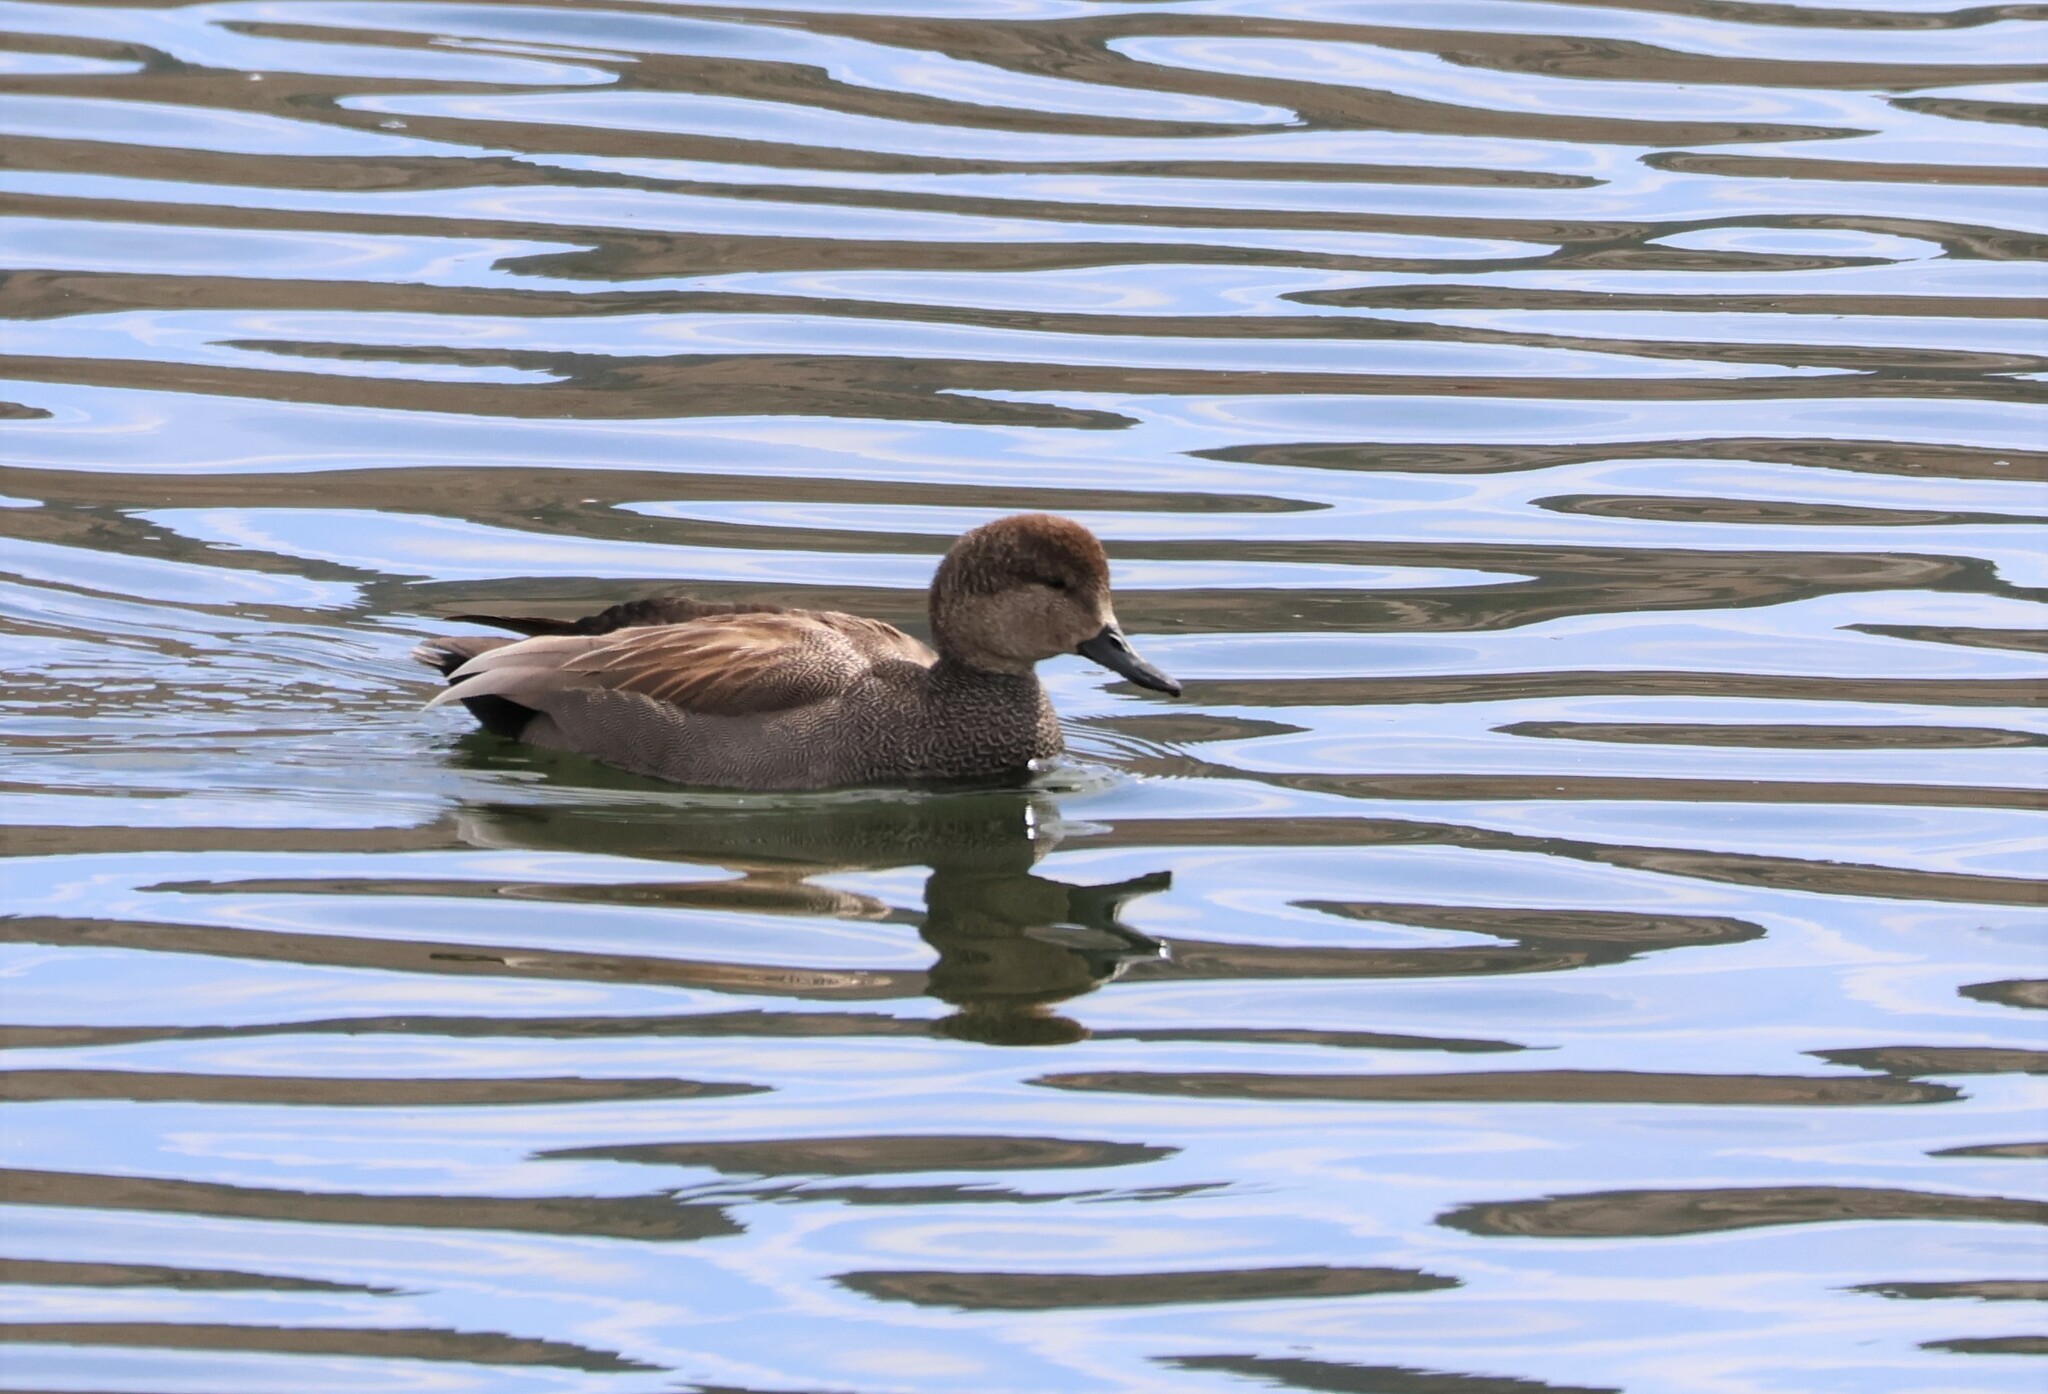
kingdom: Animalia
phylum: Chordata
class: Aves
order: Anseriformes
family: Anatidae
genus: Mareca
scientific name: Mareca strepera
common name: Gadwall
